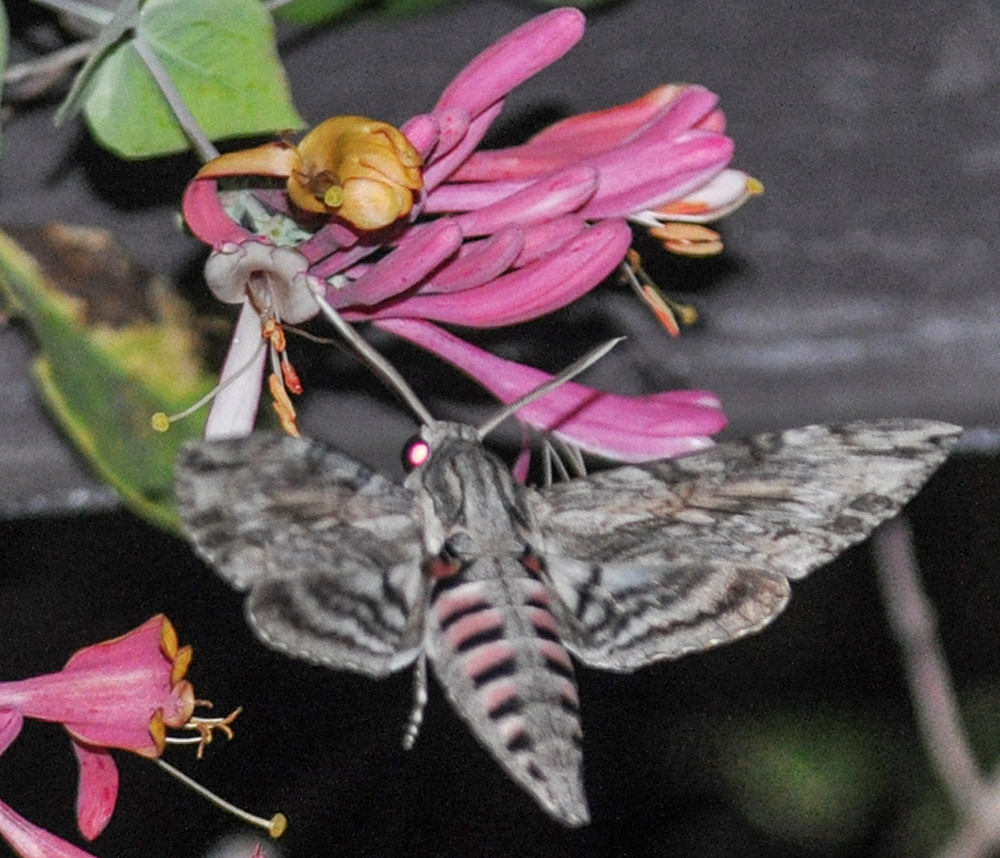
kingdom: Animalia
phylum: Arthropoda
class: Insecta
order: Lepidoptera
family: Sphingidae
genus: Agrius
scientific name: Agrius convolvuli
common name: Convolvulus hawkmoth
